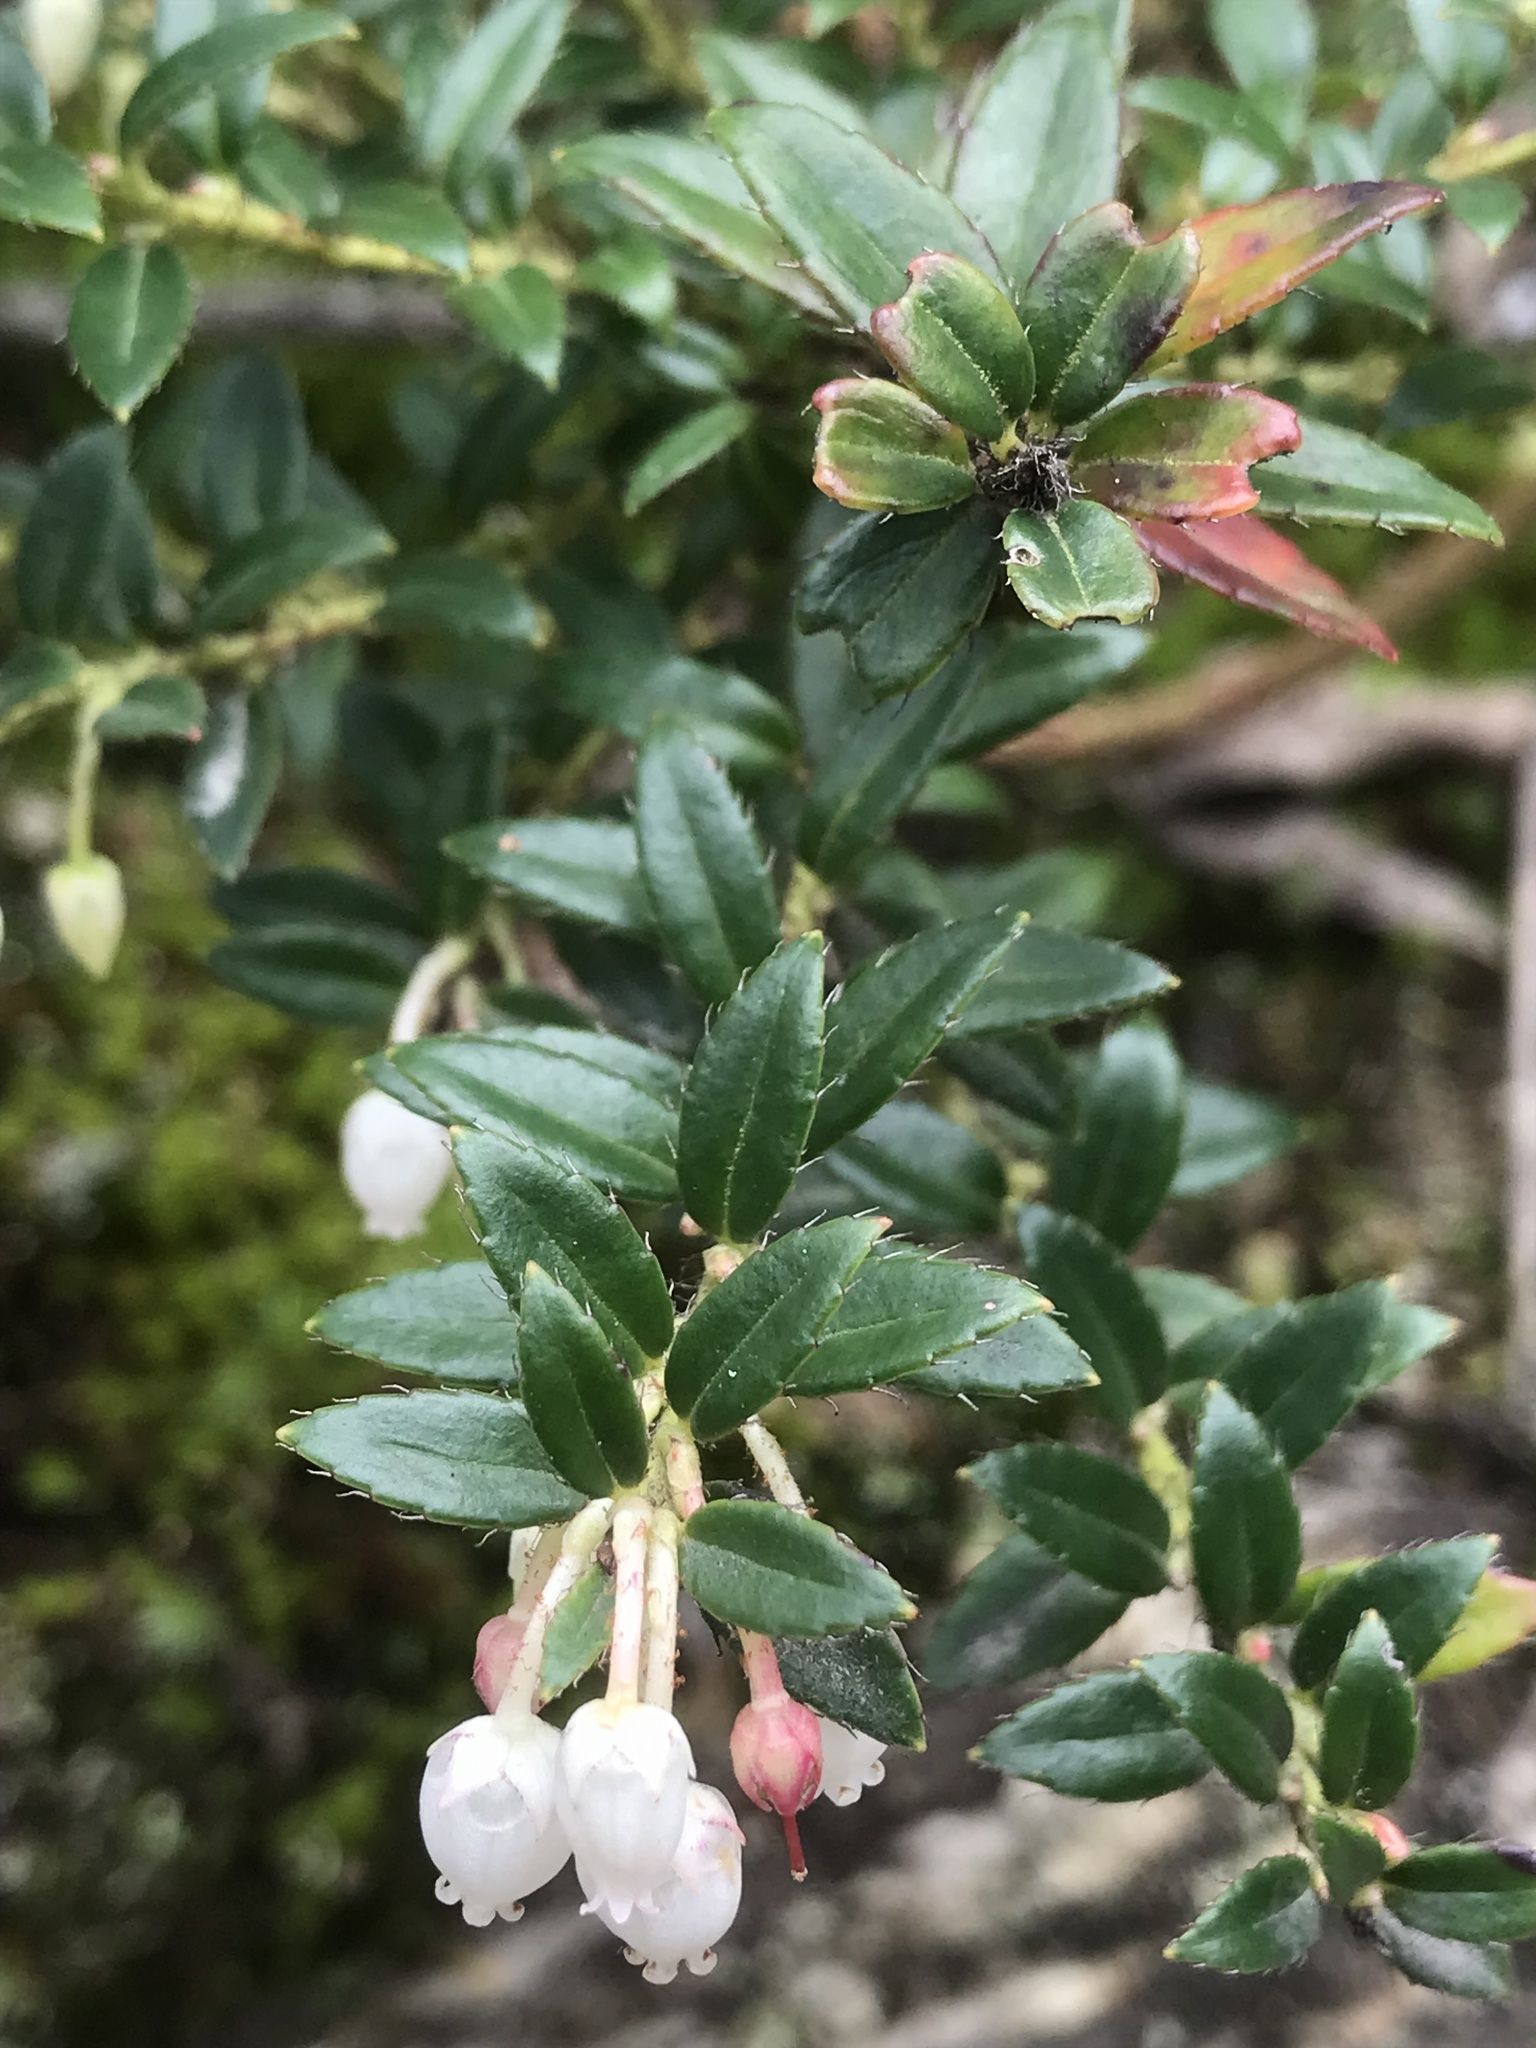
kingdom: Plantae
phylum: Tracheophyta
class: Magnoliopsida
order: Ericales
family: Ericaceae
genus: Gaultheria
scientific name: Gaultheria myrsinoides
